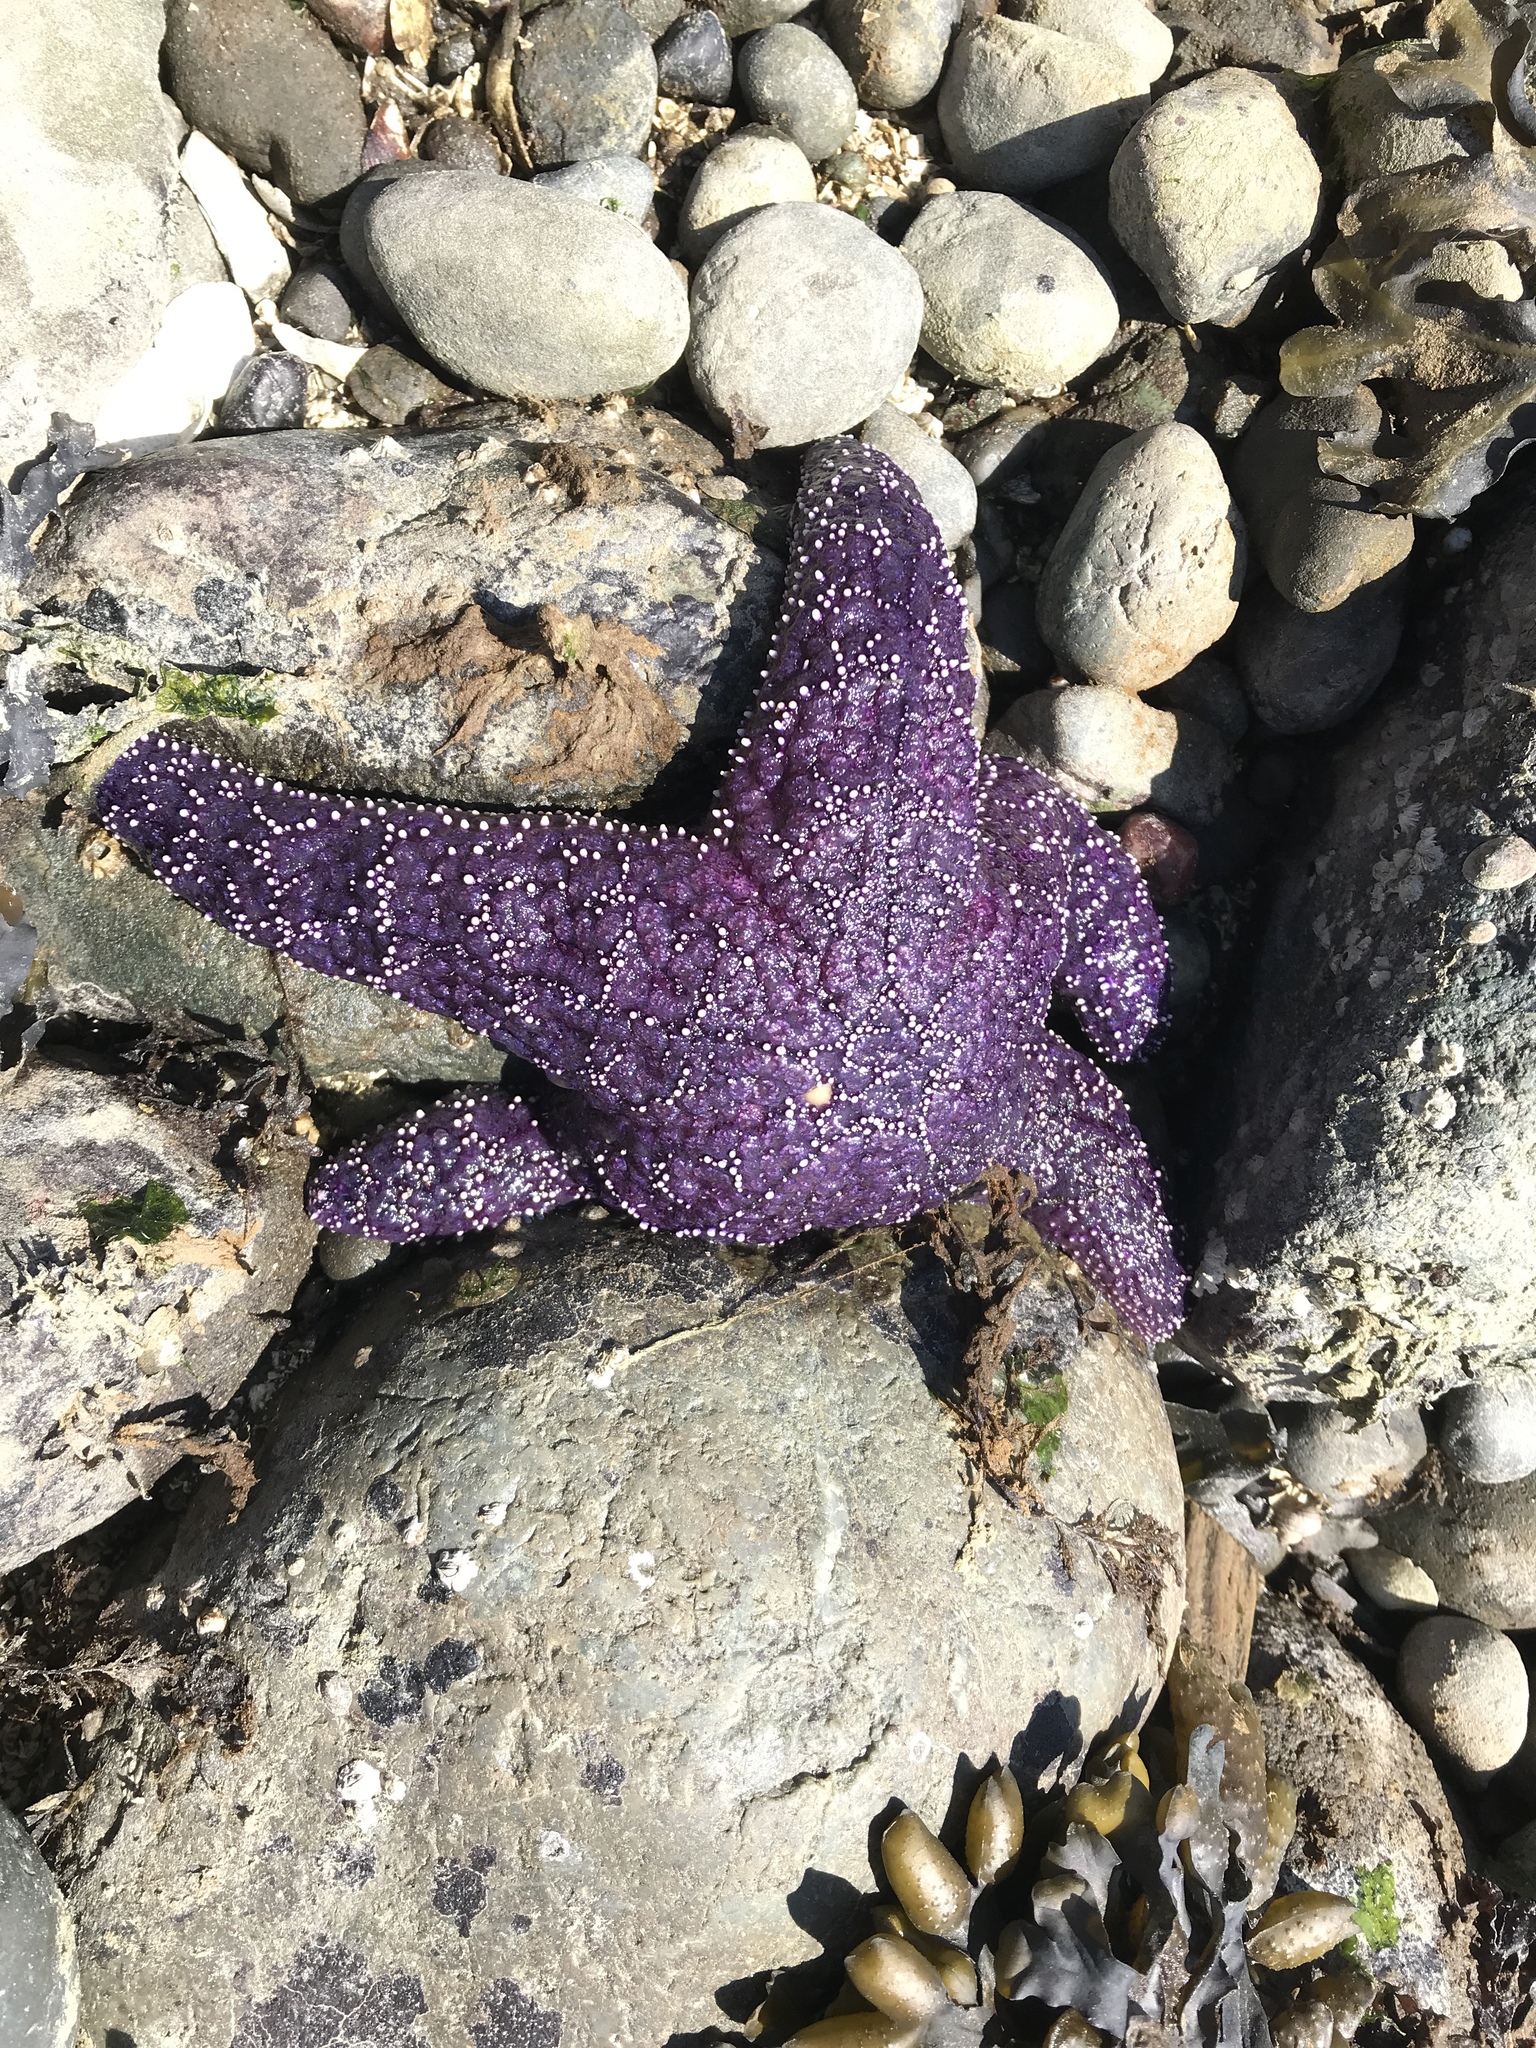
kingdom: Animalia
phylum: Echinodermata
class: Asteroidea
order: Forcipulatida
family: Asteriidae
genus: Pisaster
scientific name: Pisaster ochraceus
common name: Ochre stars
